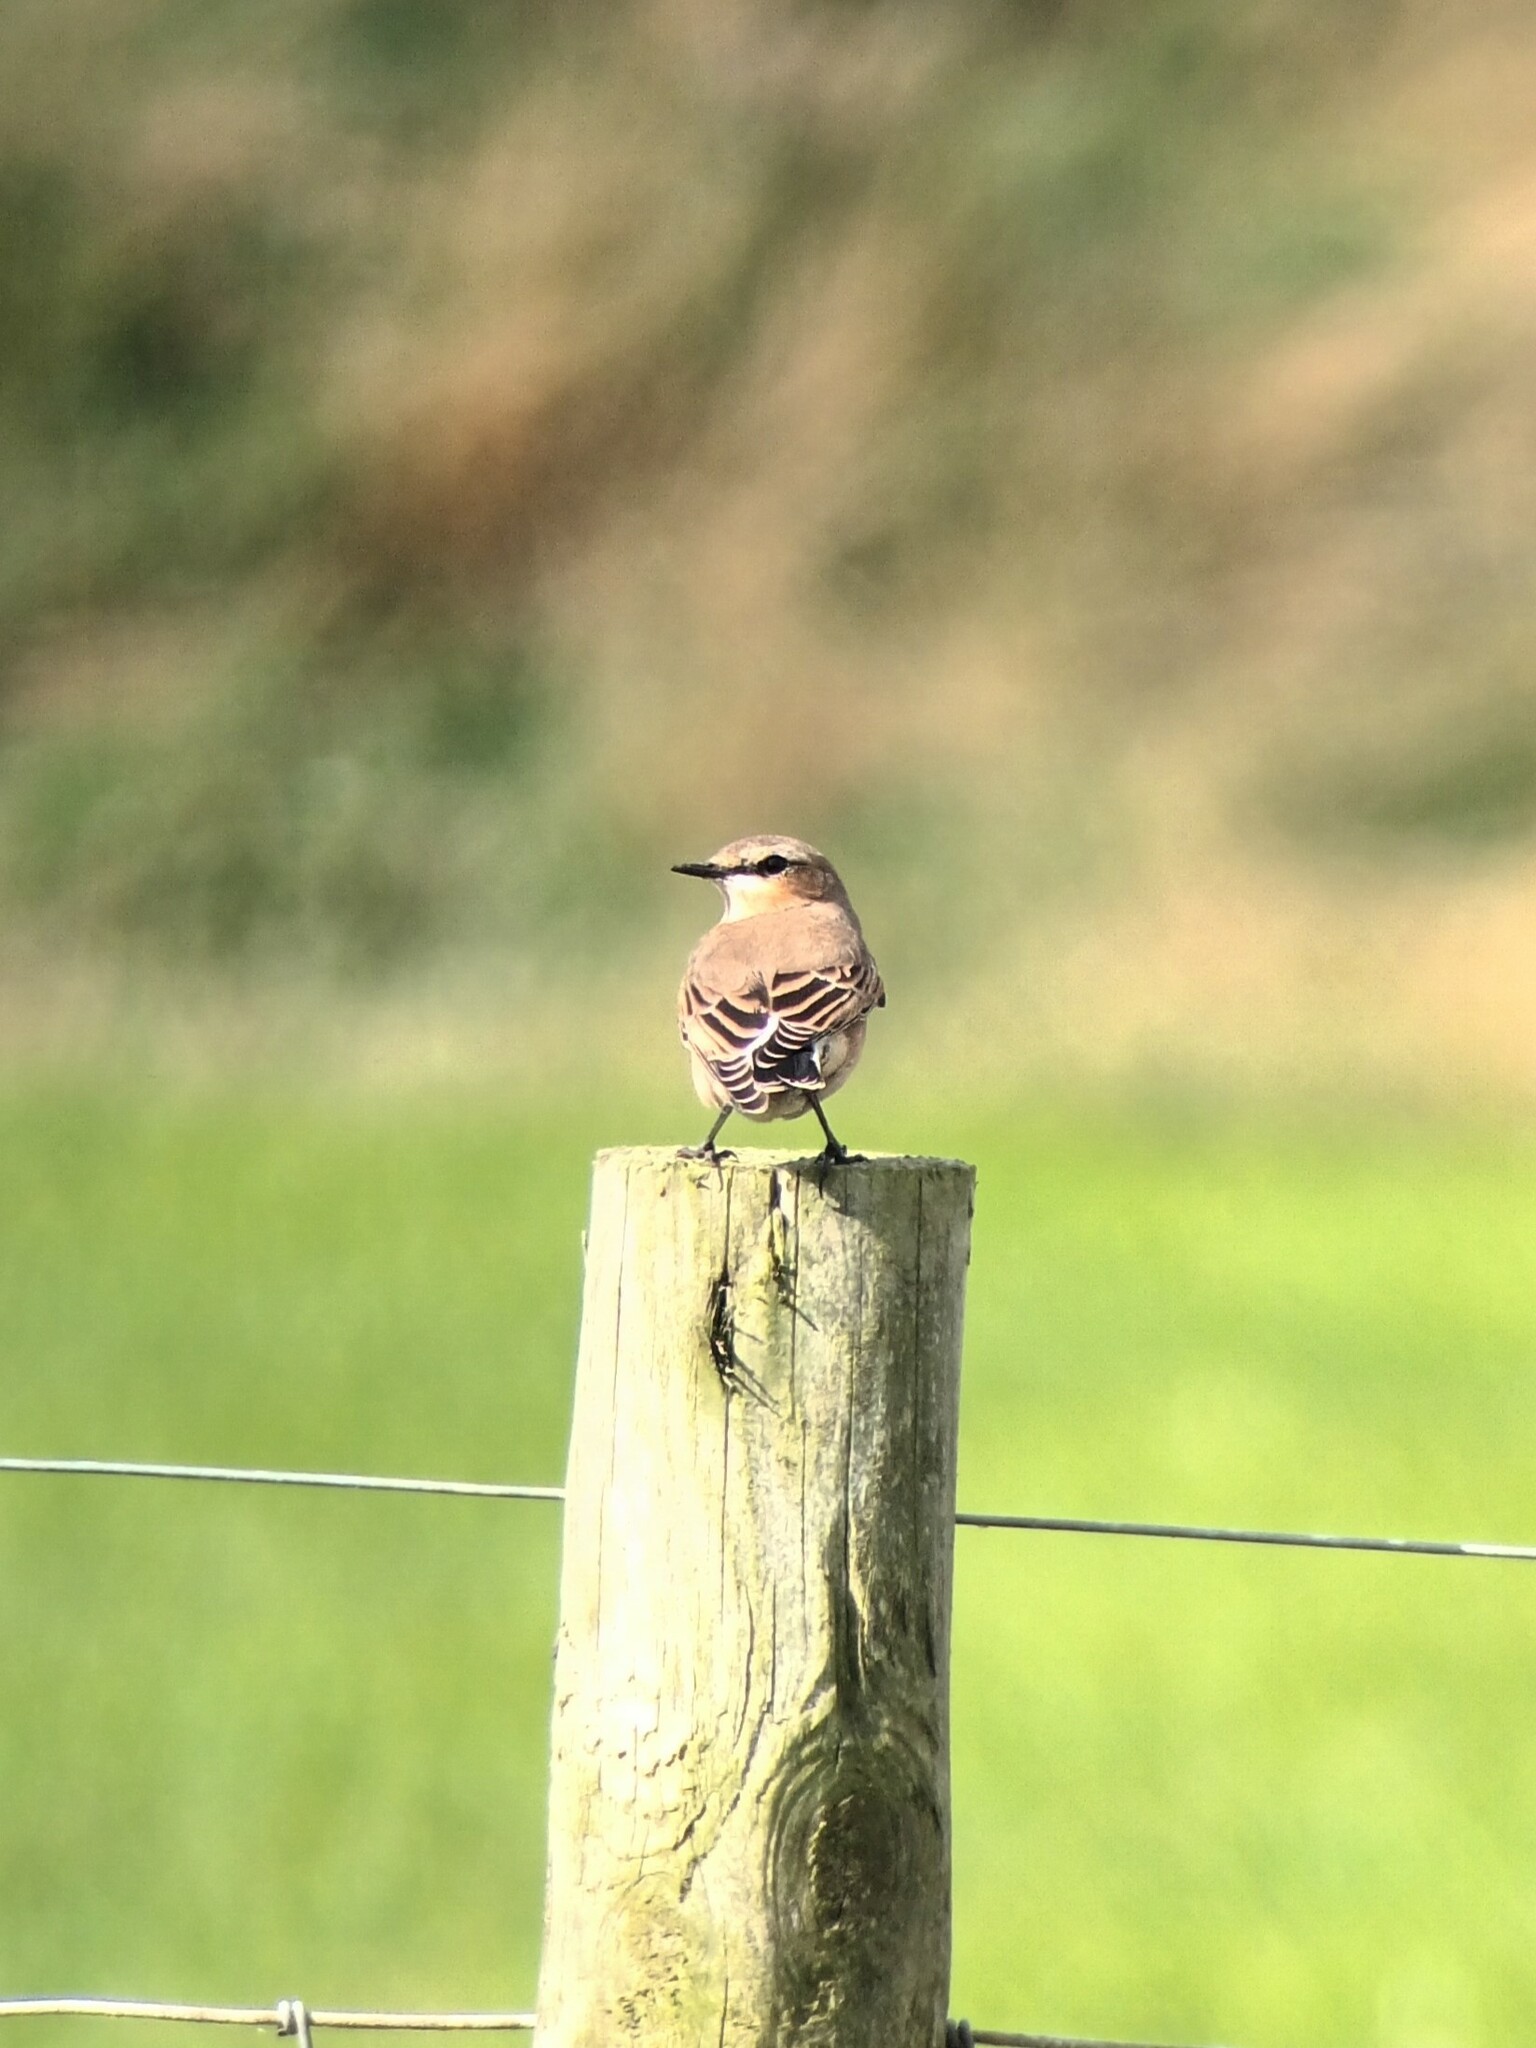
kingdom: Animalia
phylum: Chordata
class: Aves
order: Passeriformes
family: Muscicapidae
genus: Oenanthe
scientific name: Oenanthe oenanthe
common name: Northern wheatear
